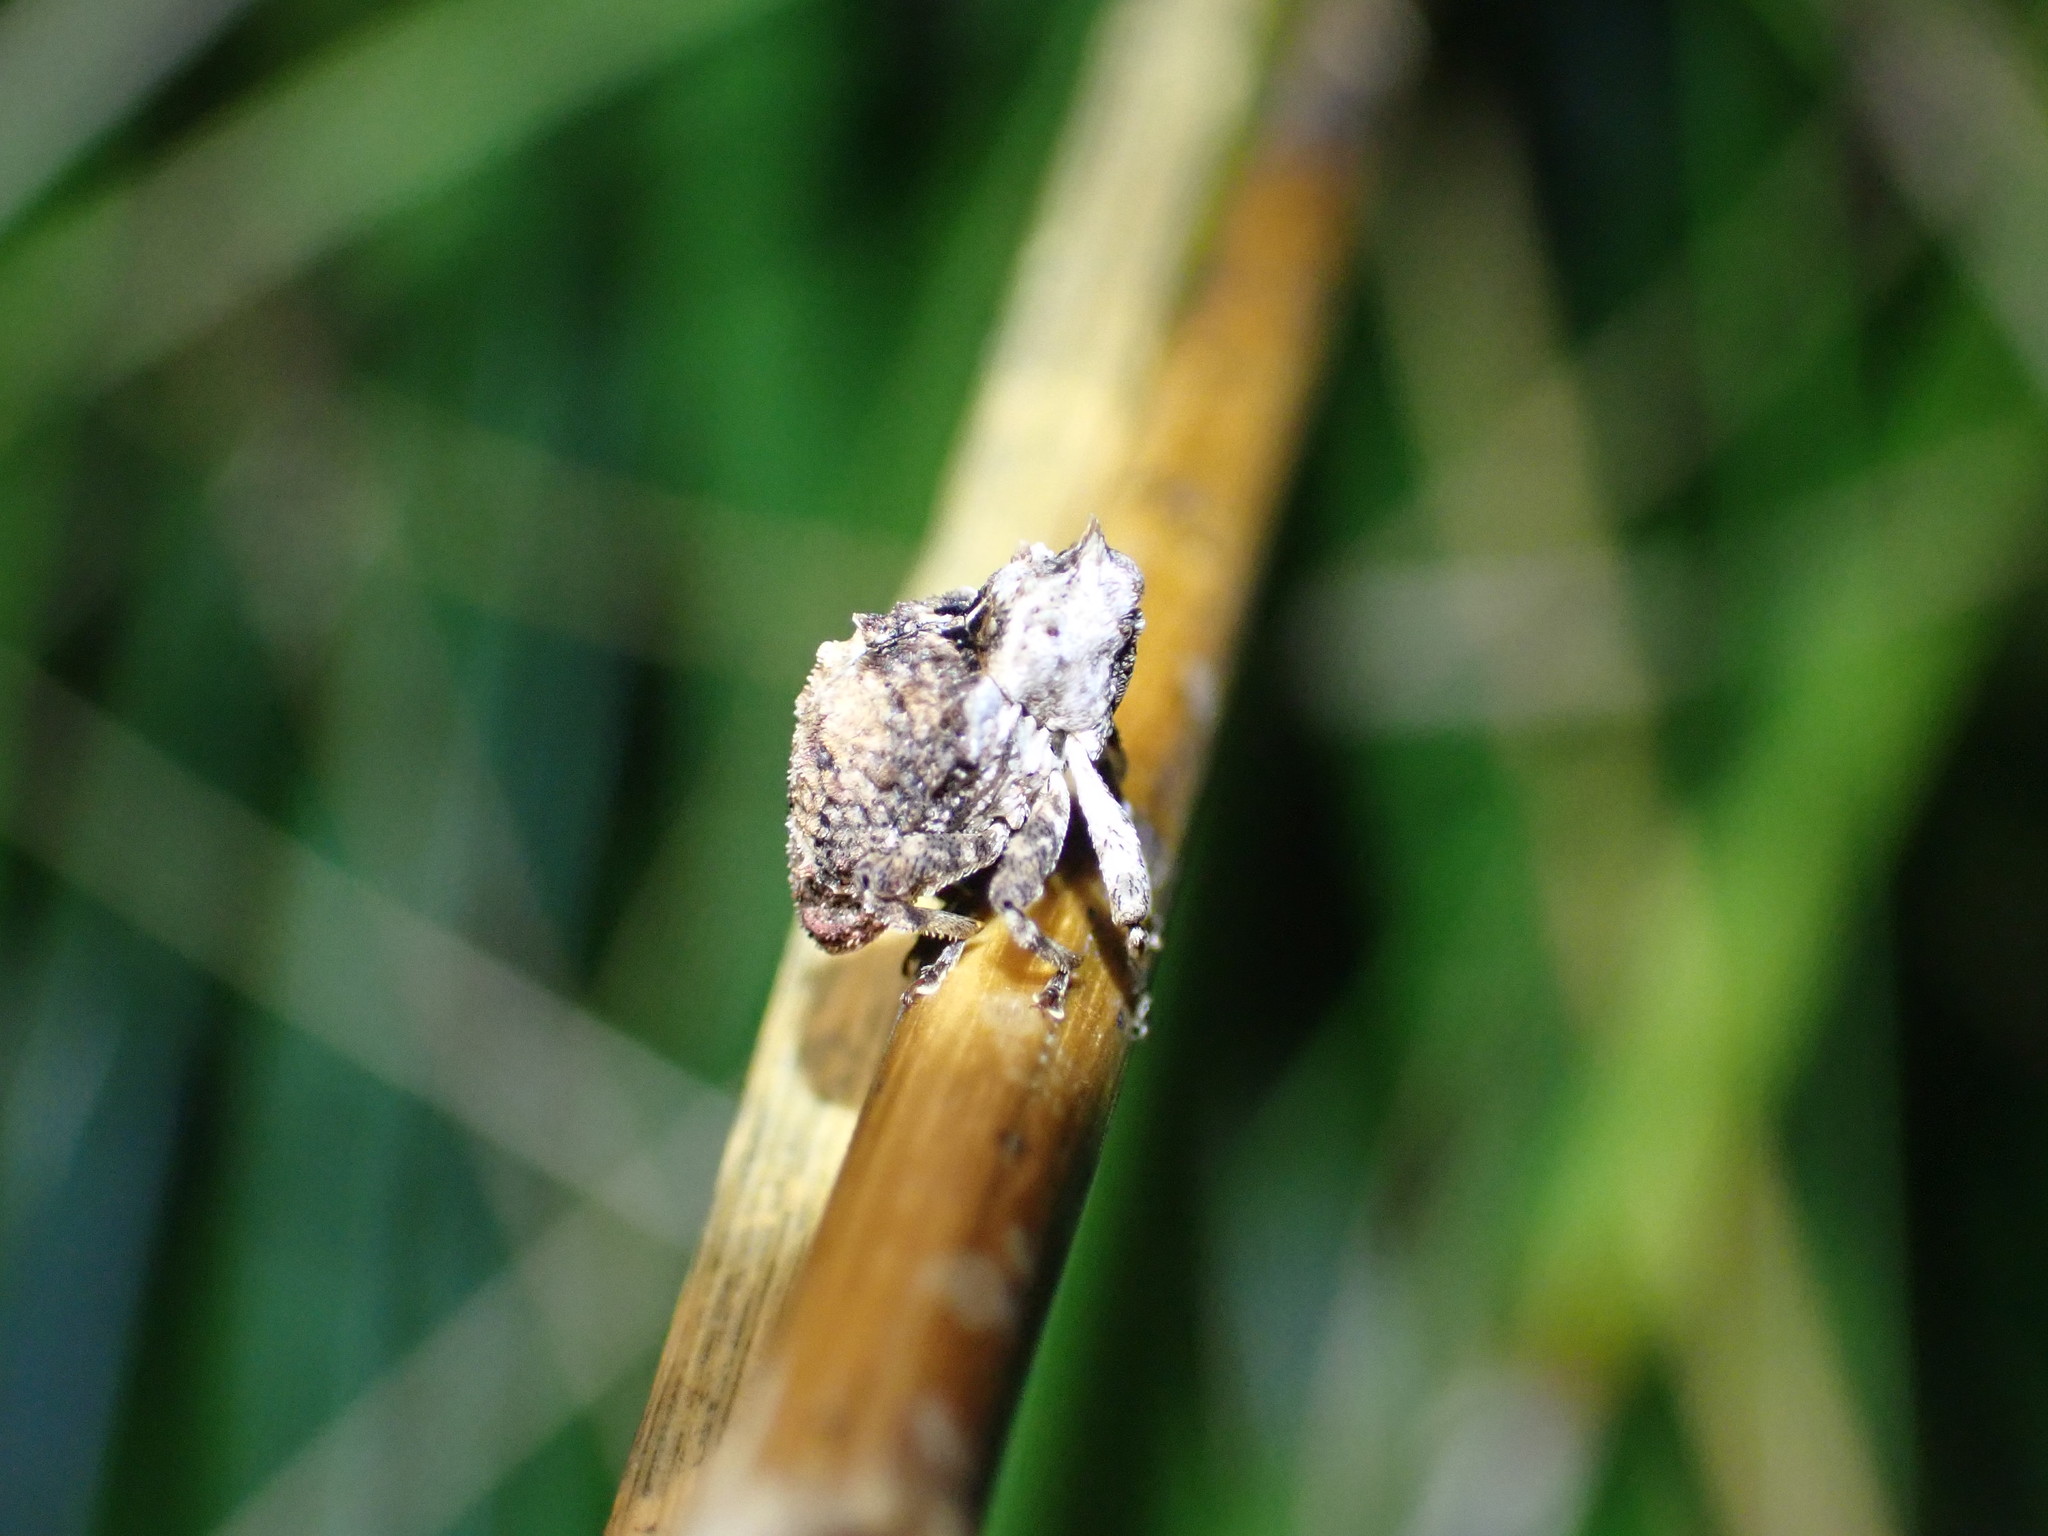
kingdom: Animalia
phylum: Arthropoda
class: Insecta
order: Coleoptera
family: Curculionidae
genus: Crisius
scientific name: Crisius binotatus
